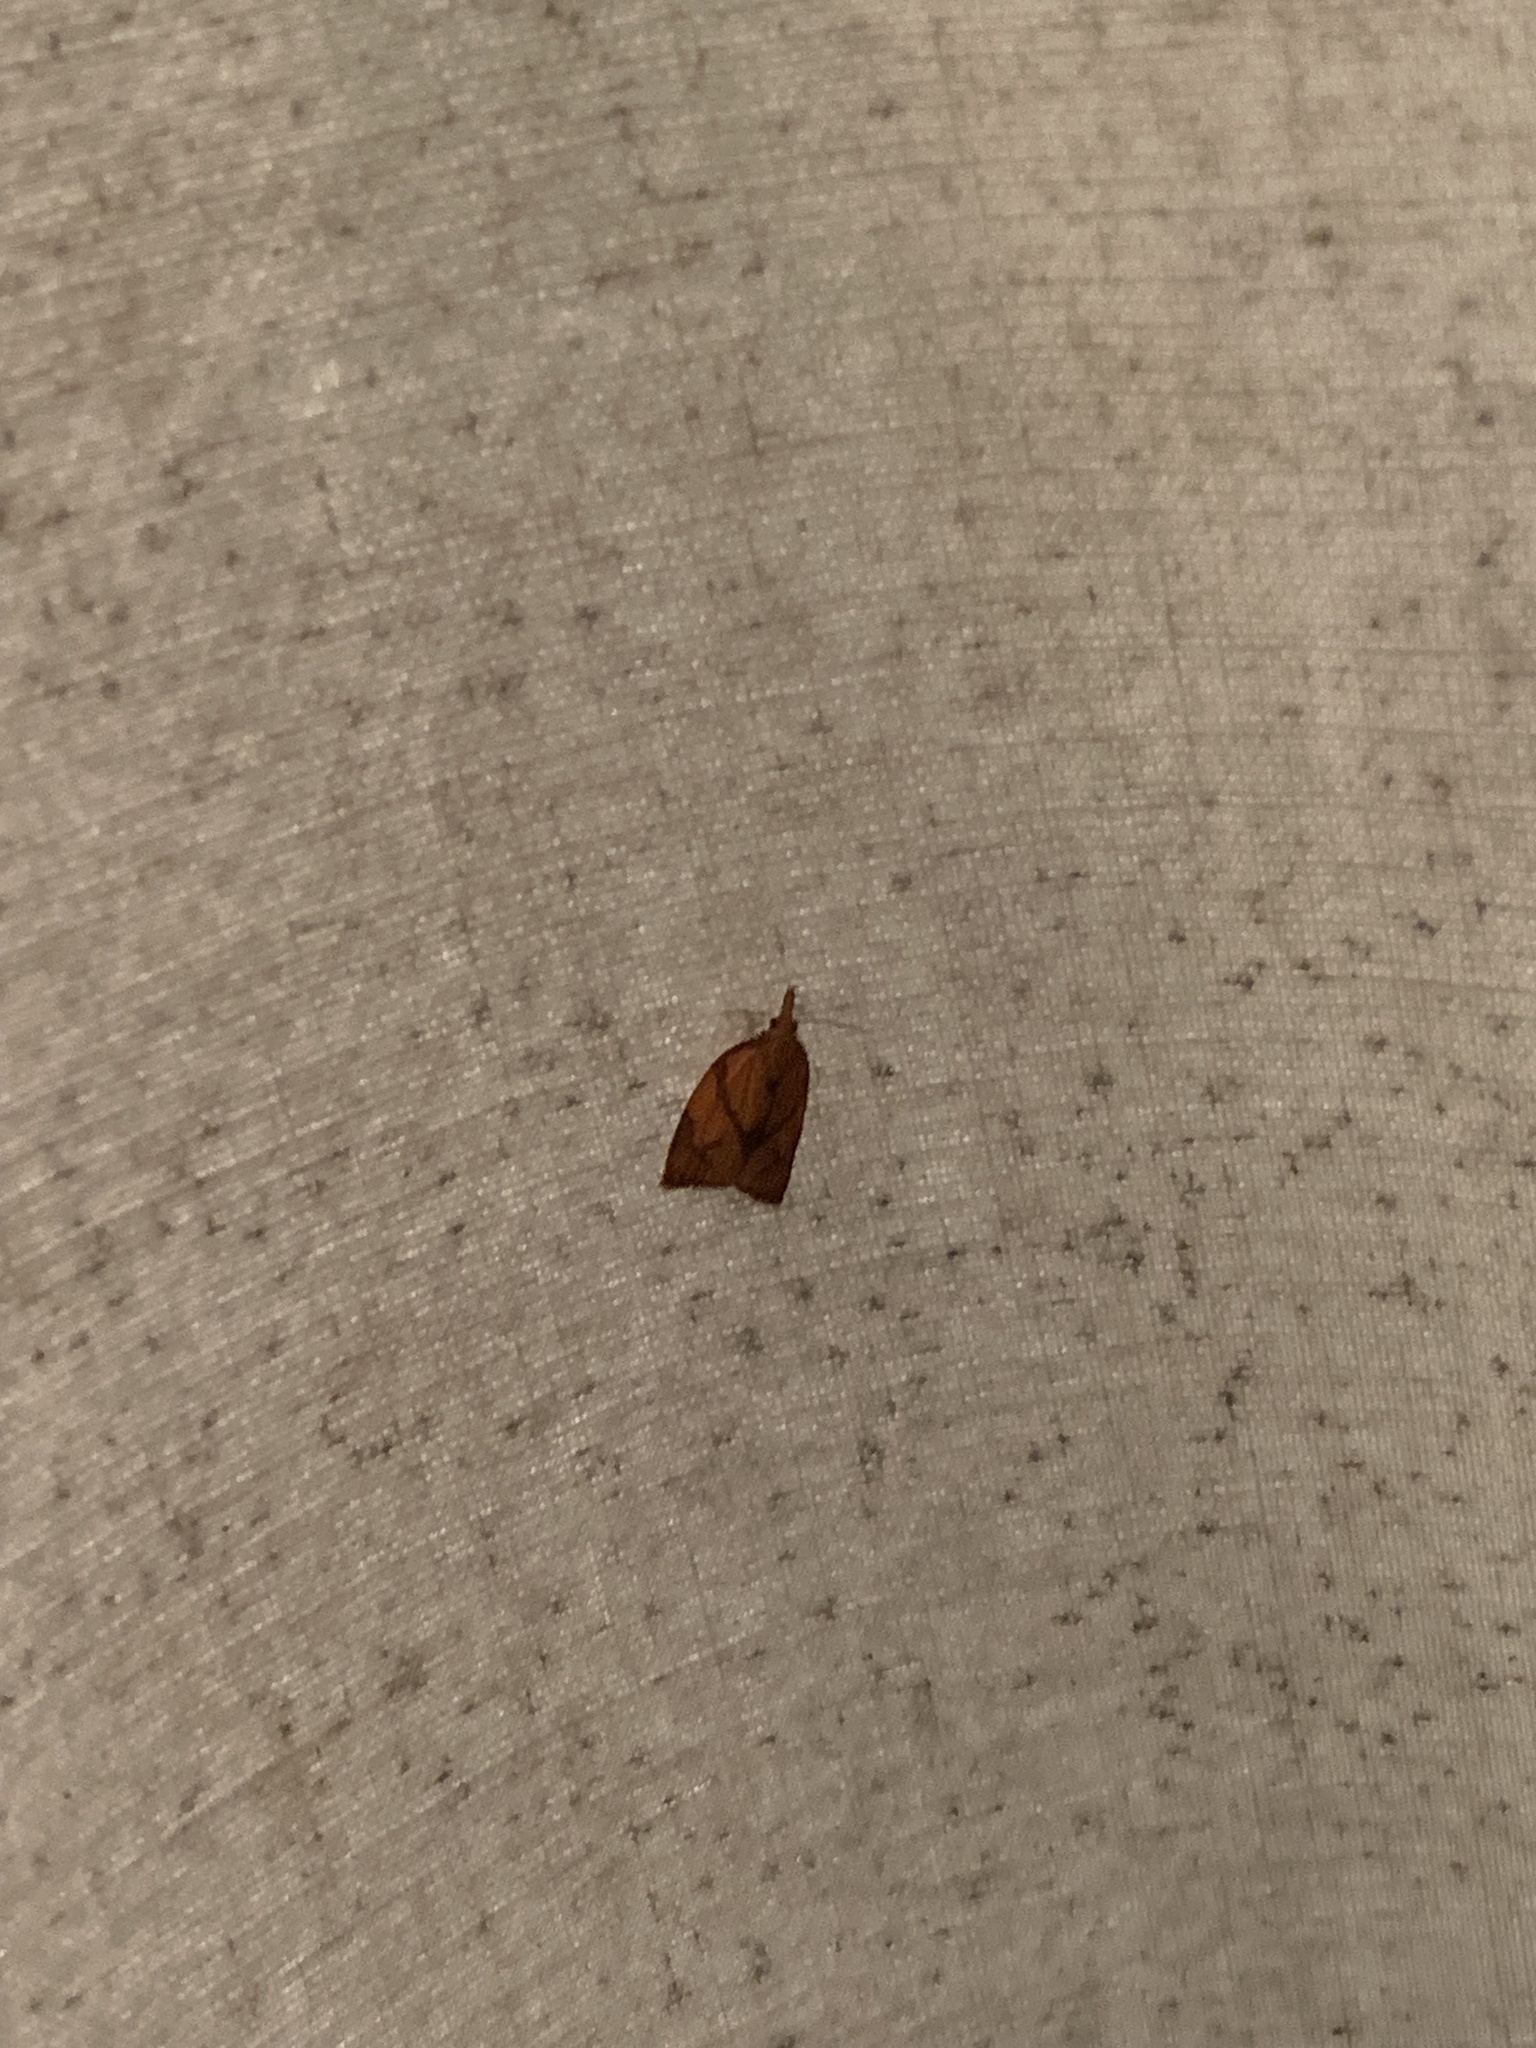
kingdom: Animalia
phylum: Arthropoda
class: Insecta
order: Lepidoptera
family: Tortricidae
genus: Cenopis
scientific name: Cenopis reticulatana
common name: Reticulated fruitworm moth
